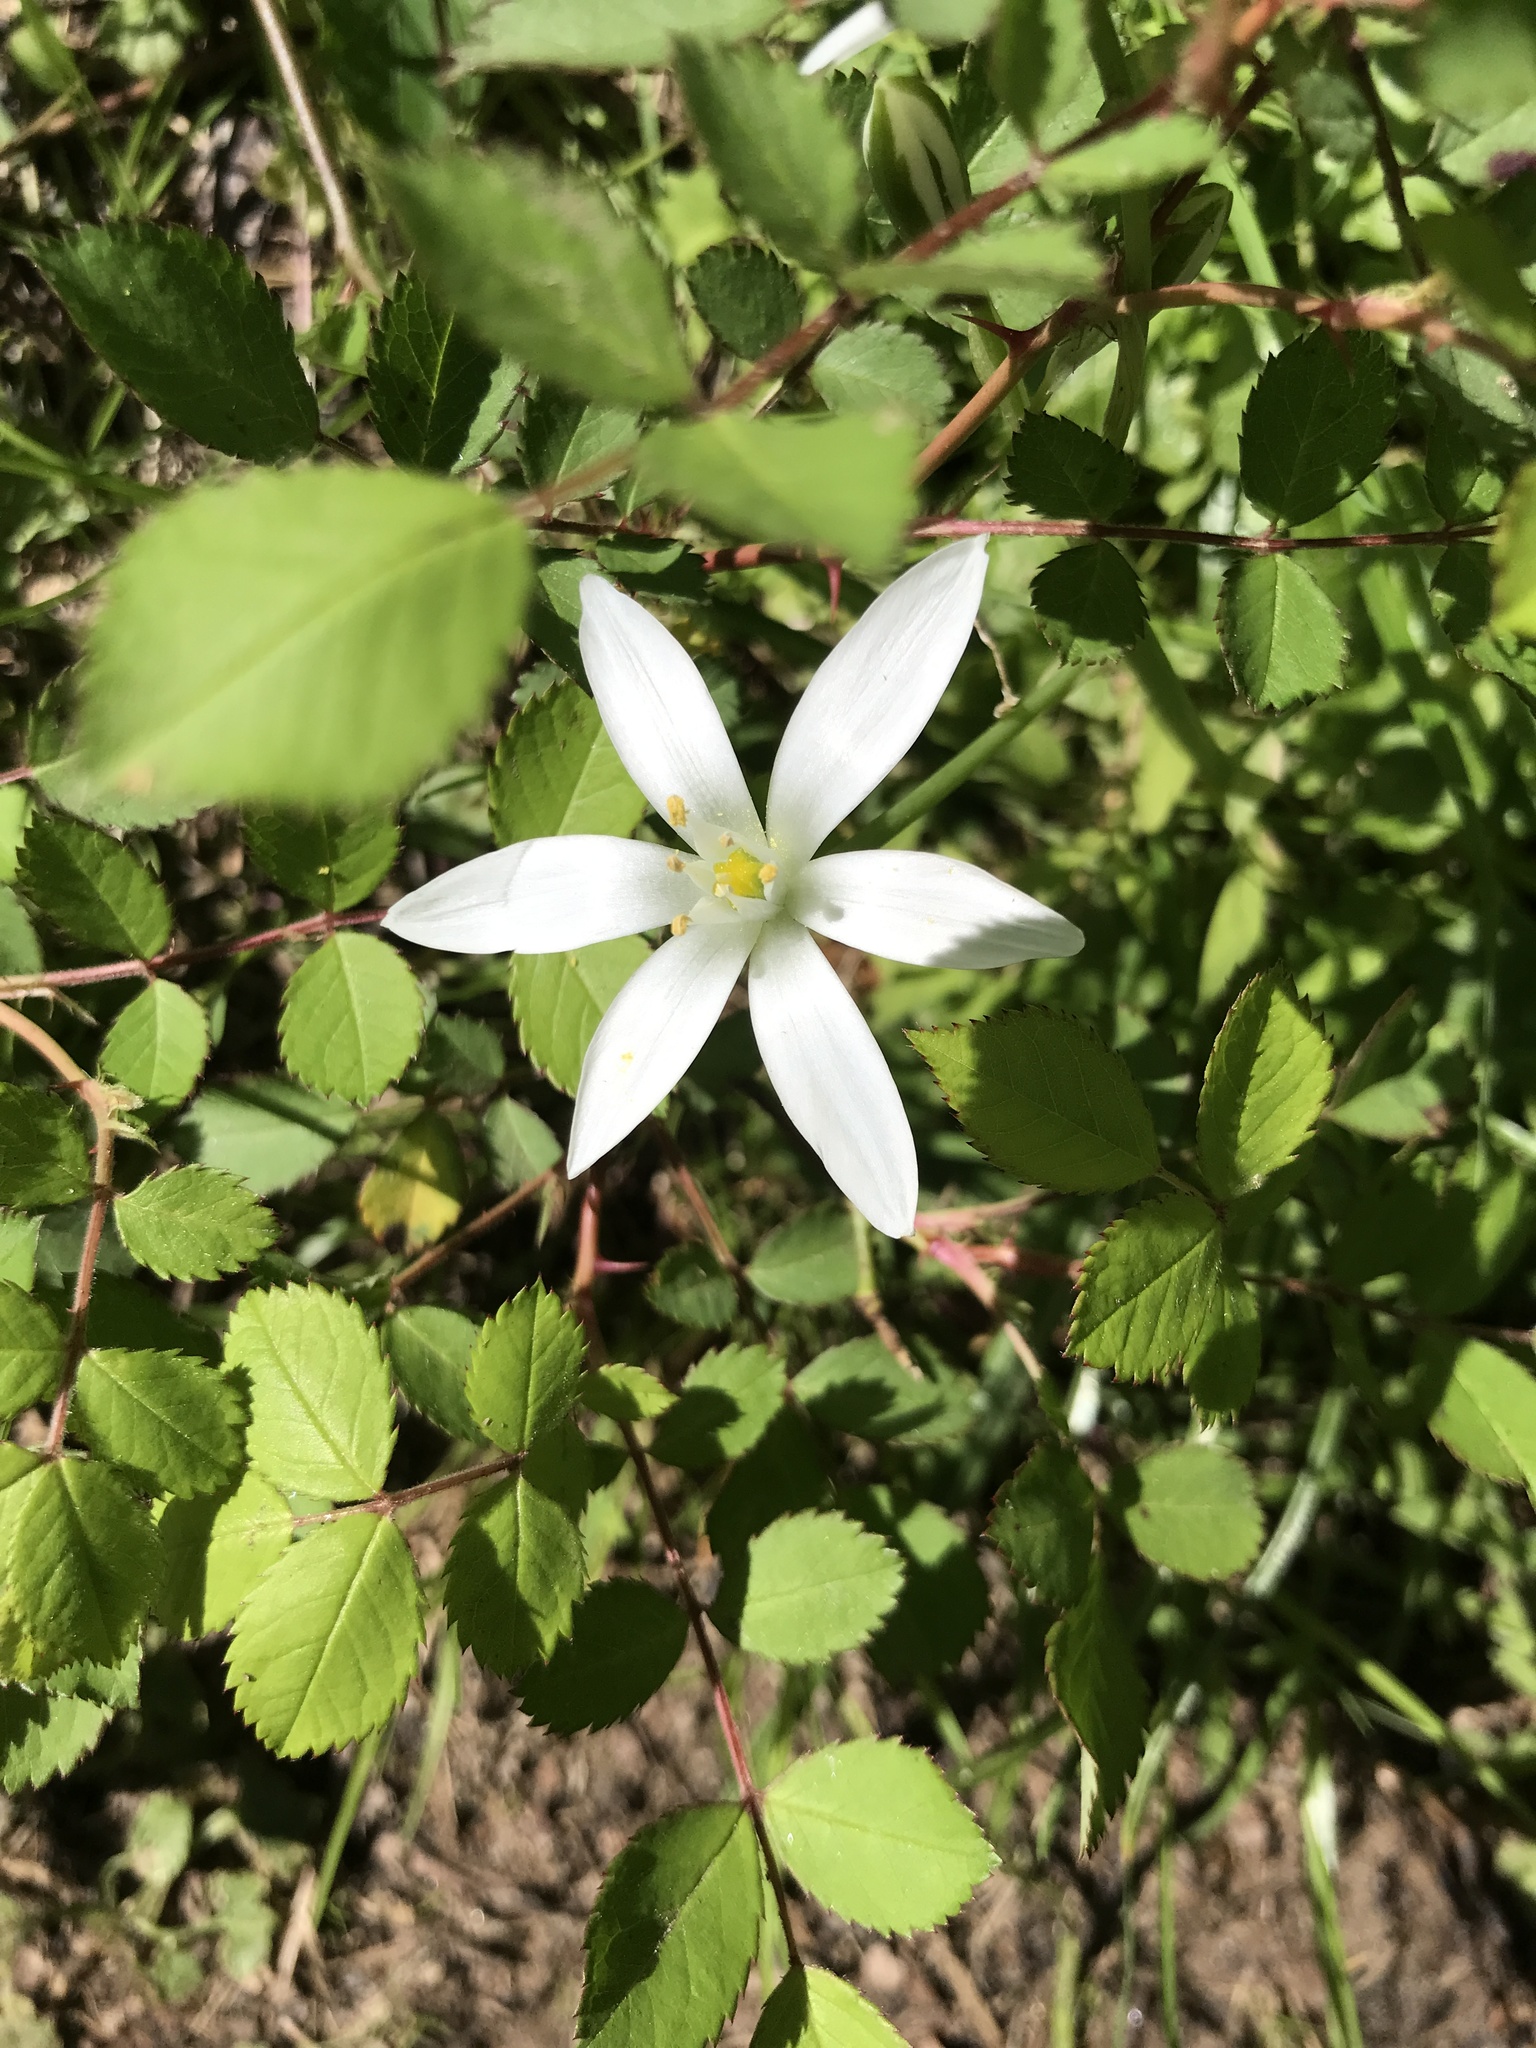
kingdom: Plantae
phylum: Tracheophyta
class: Liliopsida
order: Asparagales
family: Asparagaceae
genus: Ornithogalum
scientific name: Ornithogalum umbellatum
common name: Garden star-of-bethlehem
